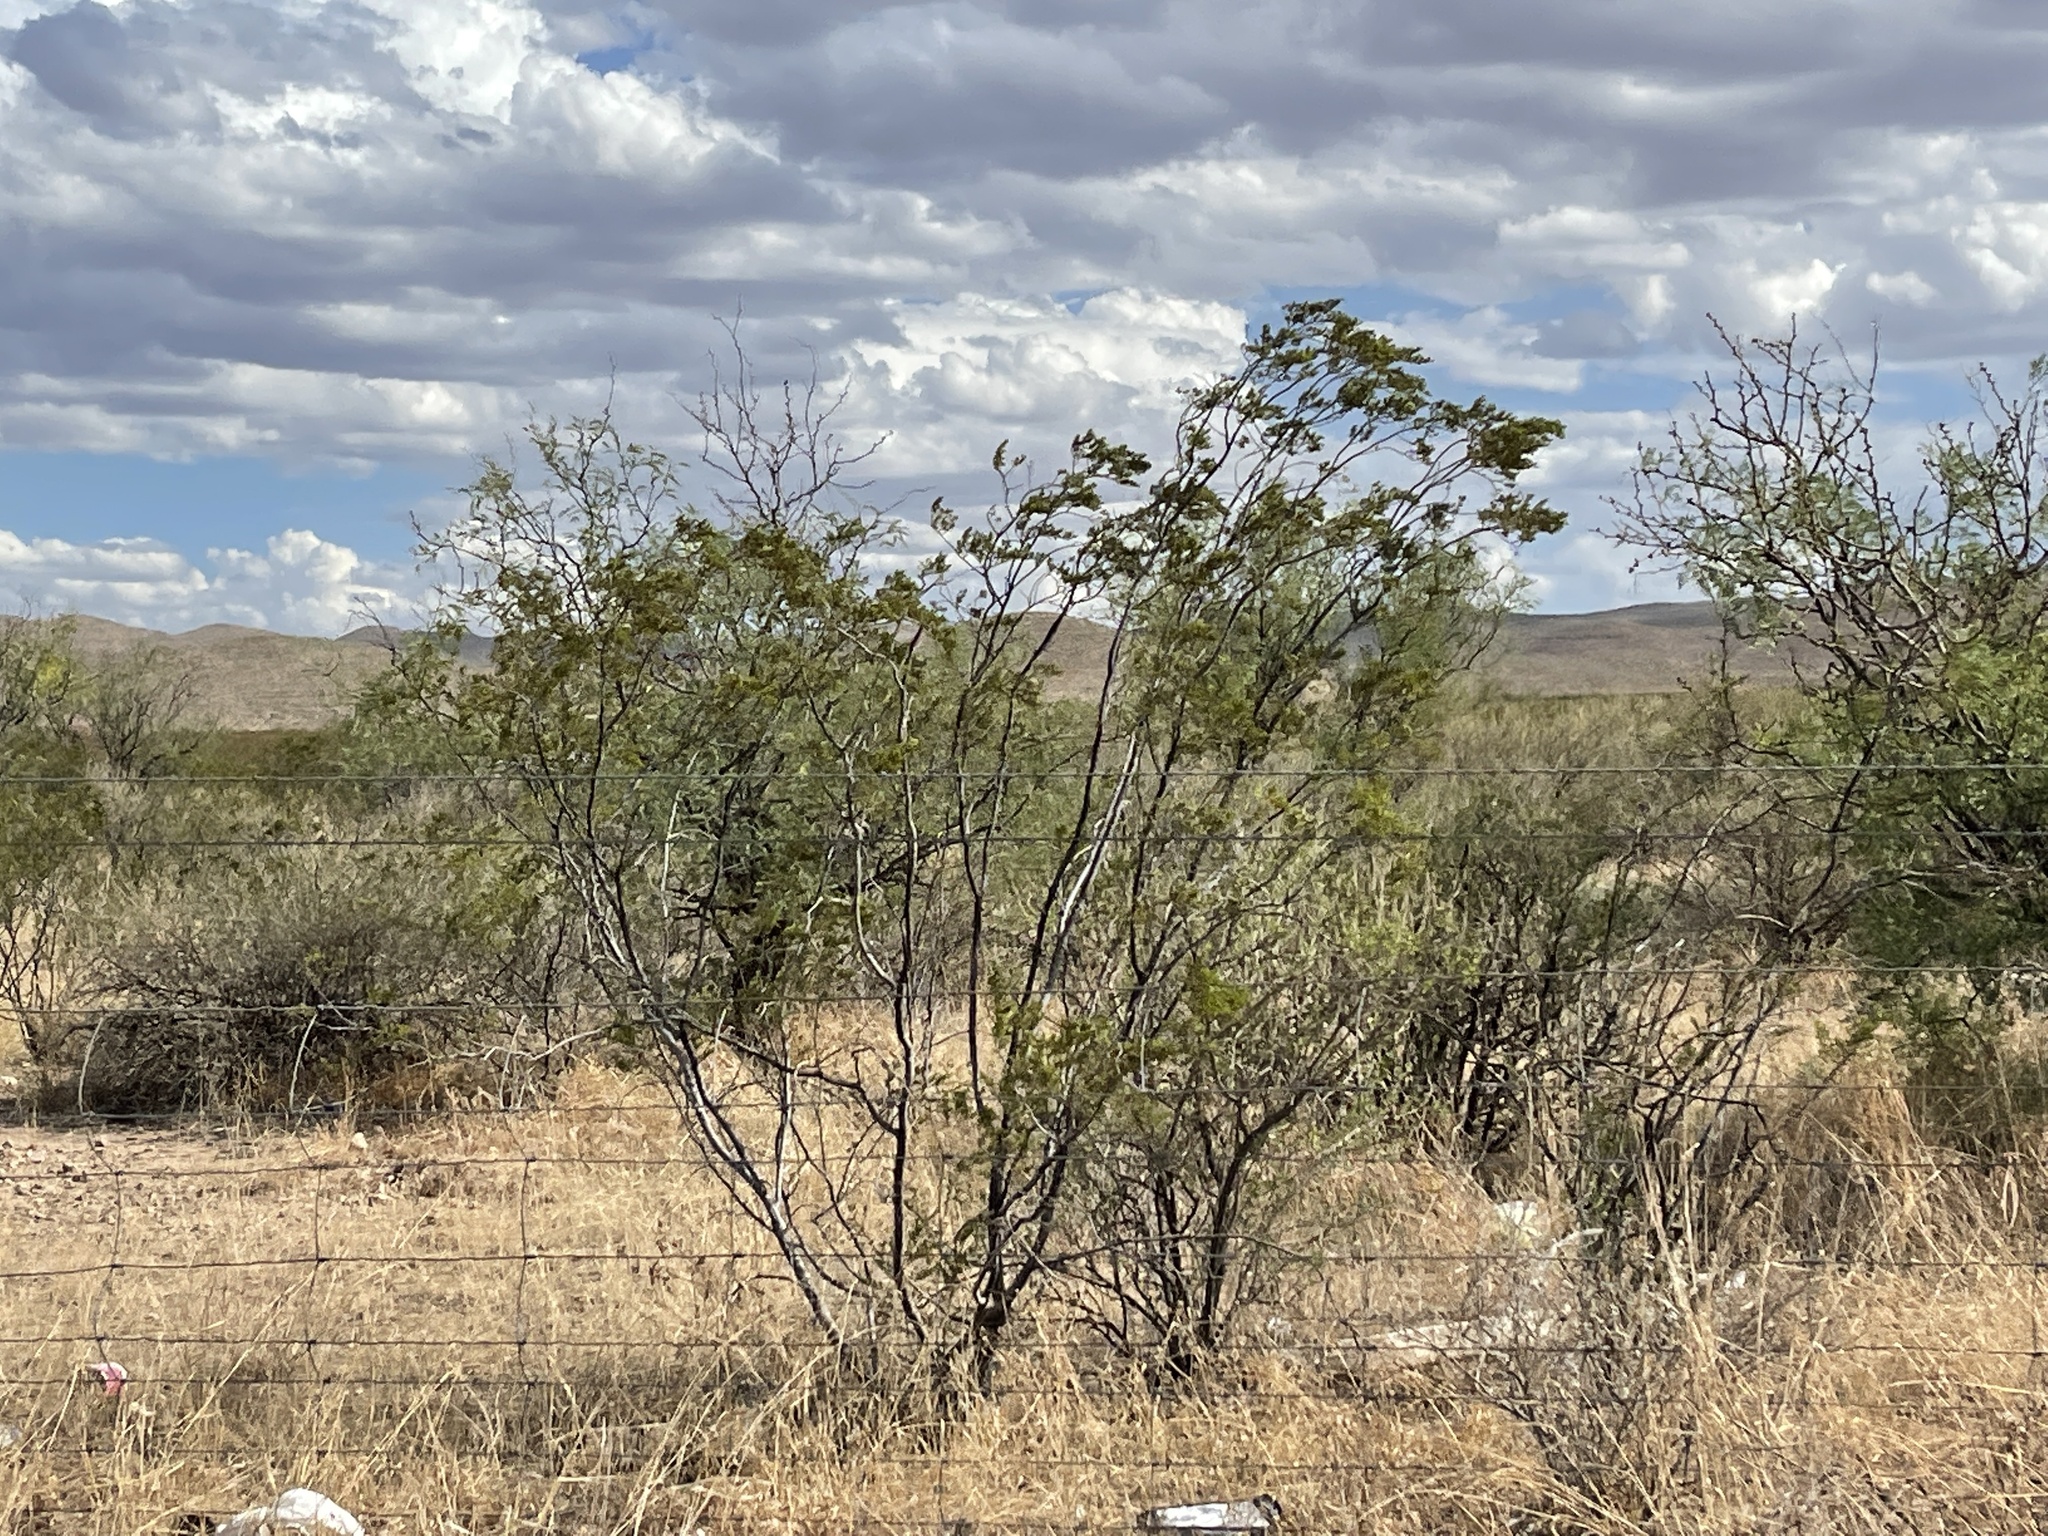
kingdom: Plantae
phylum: Tracheophyta
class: Magnoliopsida
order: Zygophyllales
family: Zygophyllaceae
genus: Larrea
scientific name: Larrea tridentata
